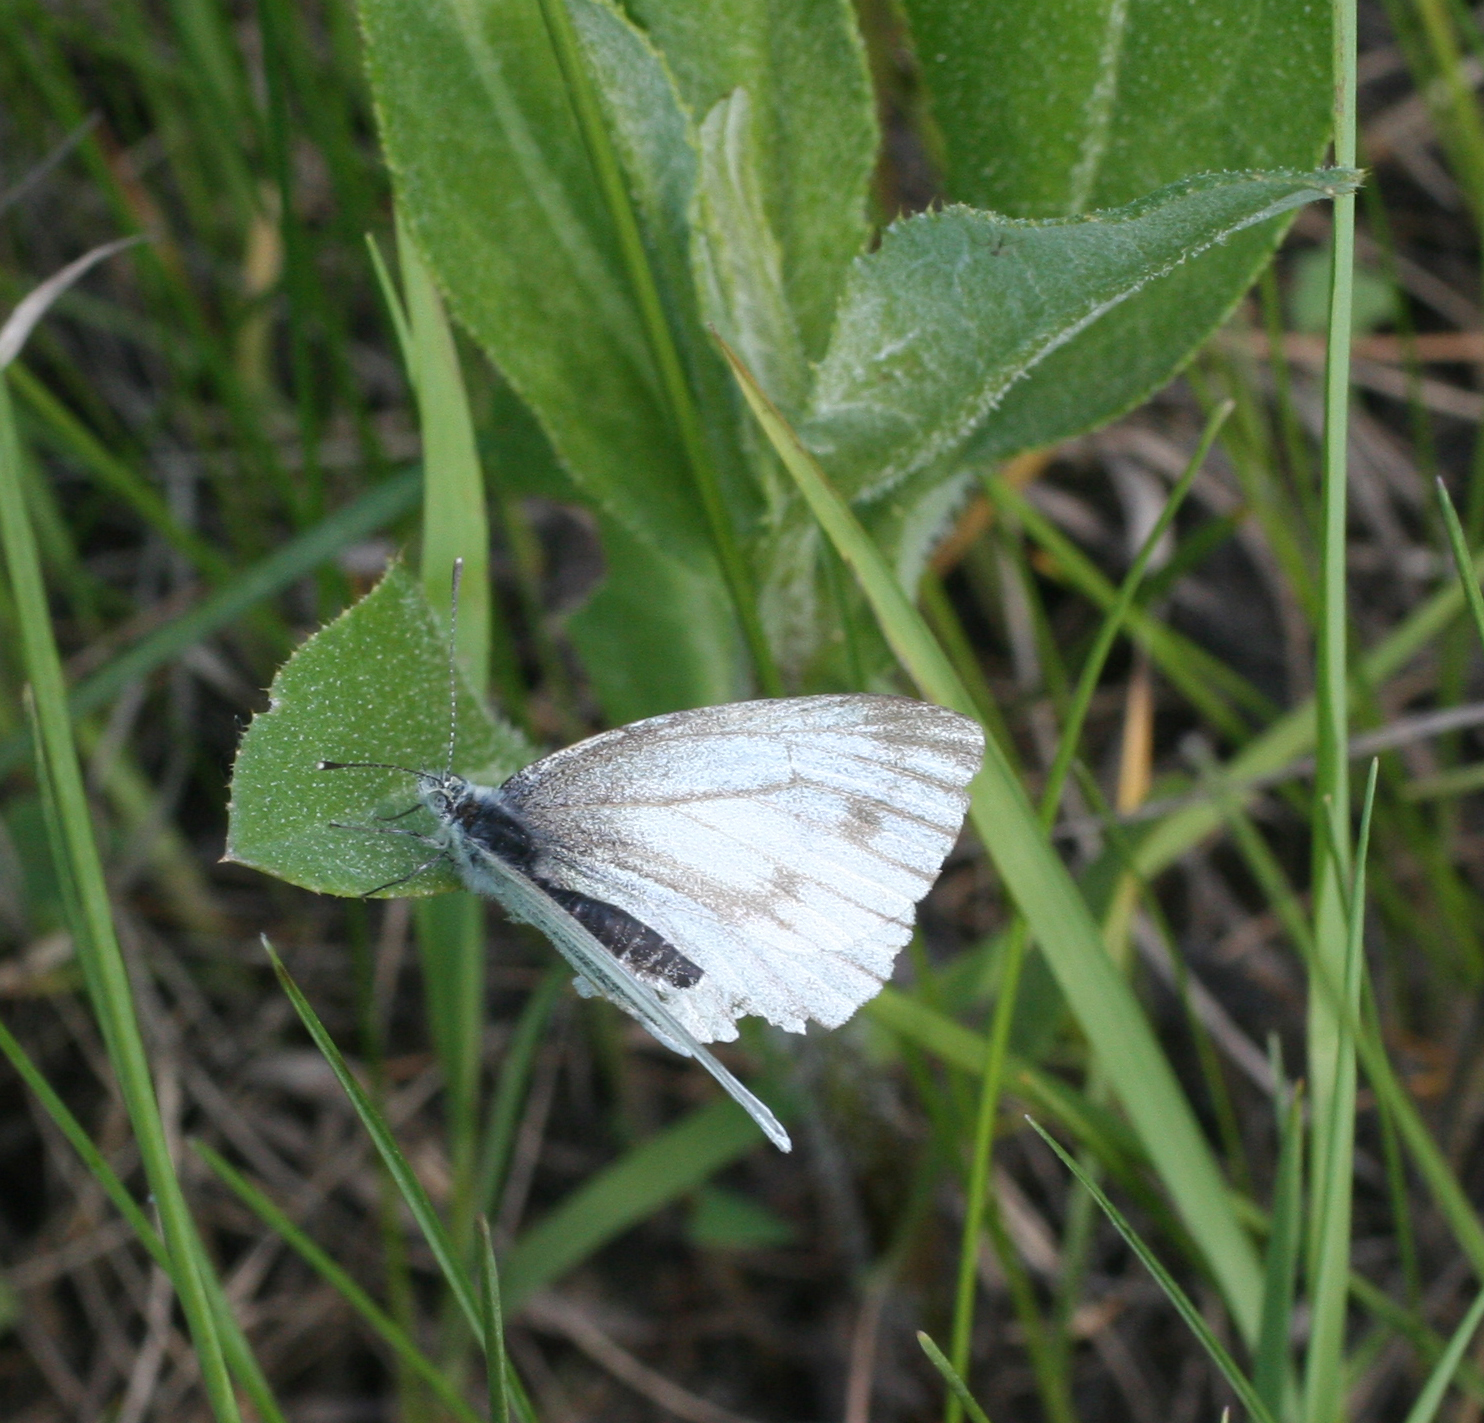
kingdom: Animalia
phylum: Arthropoda
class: Insecta
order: Lepidoptera
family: Pieridae
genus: Pieris
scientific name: Pieris napi
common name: Green-veined white
